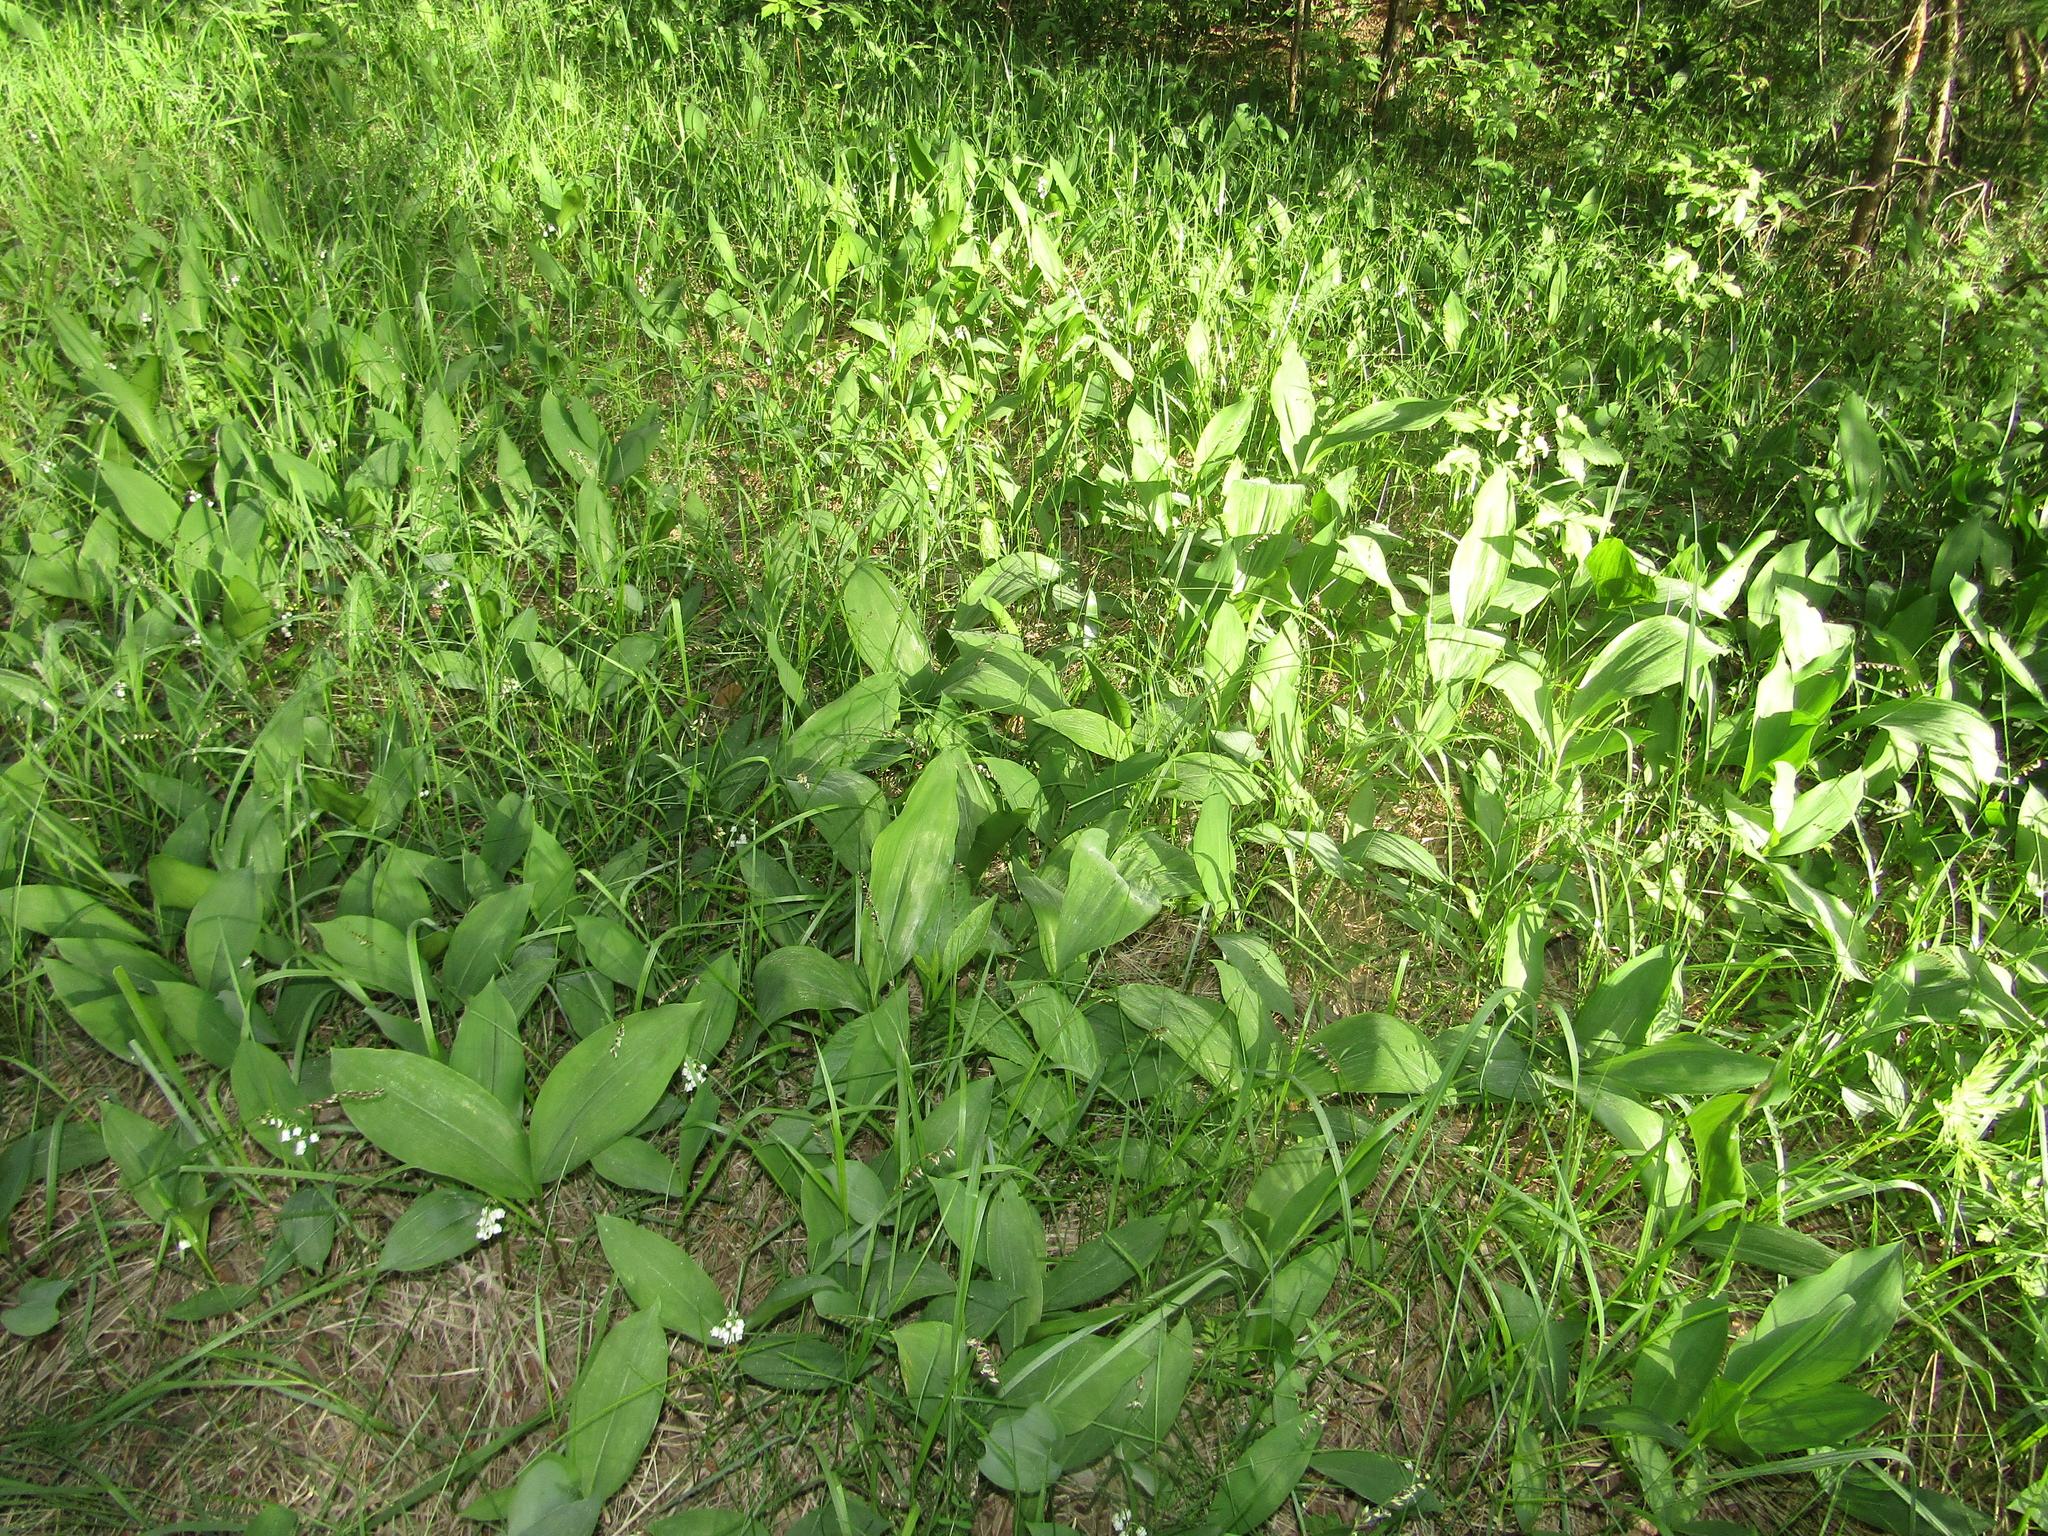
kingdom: Plantae
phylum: Tracheophyta
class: Liliopsida
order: Asparagales
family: Asparagaceae
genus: Convallaria
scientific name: Convallaria majalis
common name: Lily-of-the-valley
